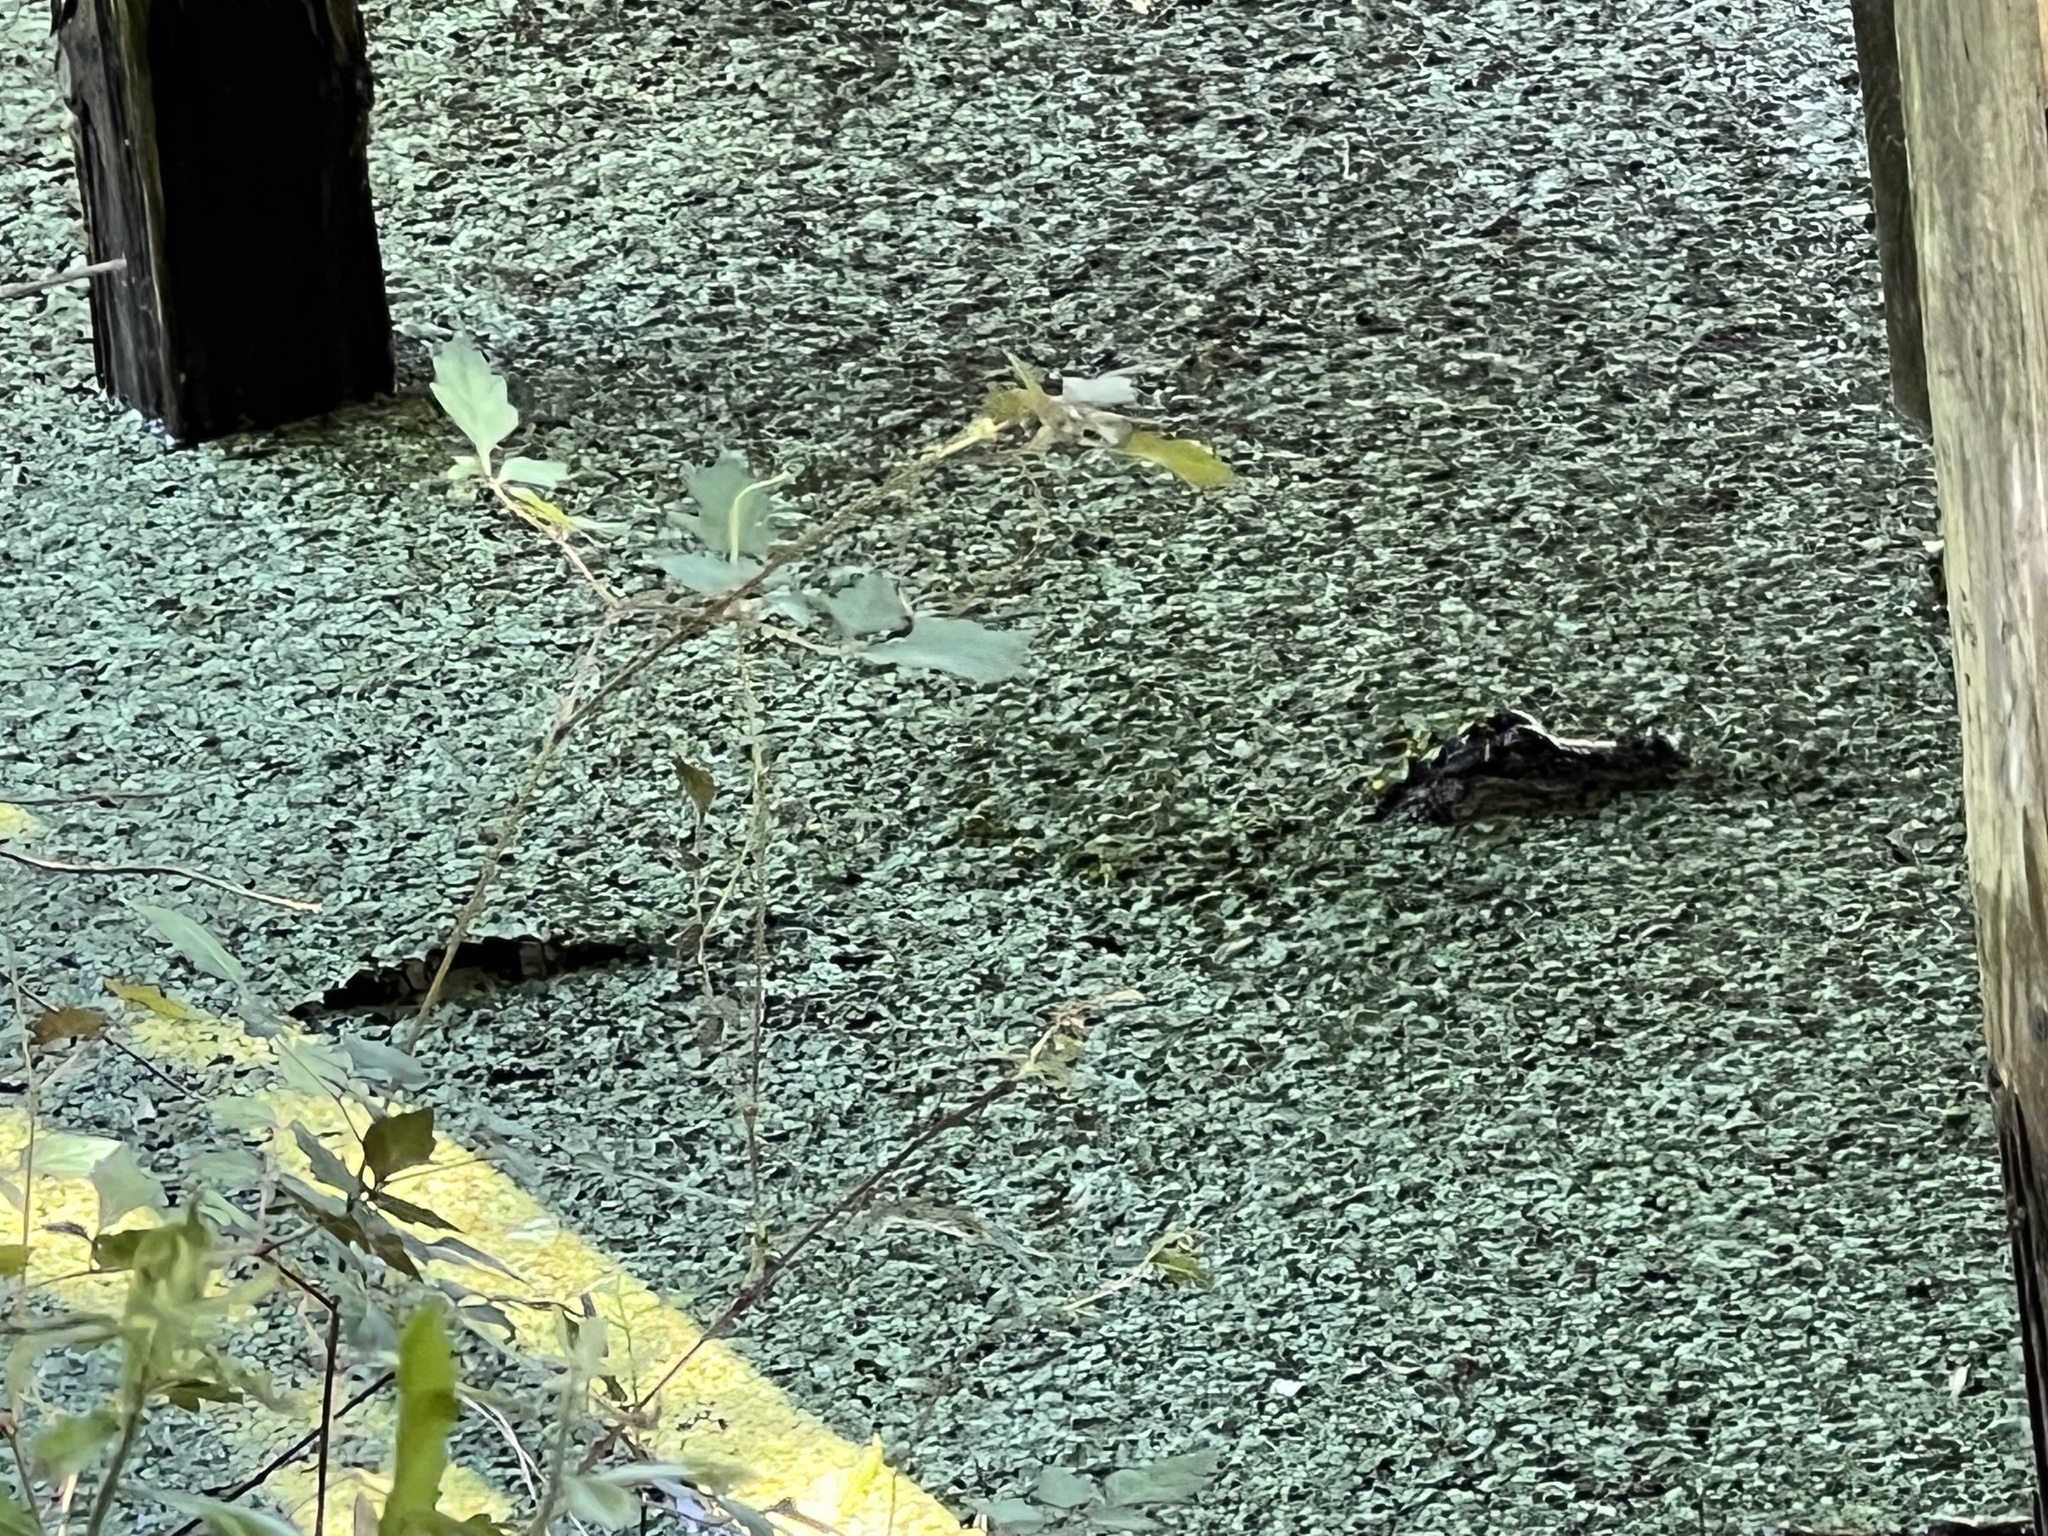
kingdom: Animalia
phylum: Chordata
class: Crocodylia
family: Alligatoridae
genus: Alligator
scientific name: Alligator mississippiensis
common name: American alligator
